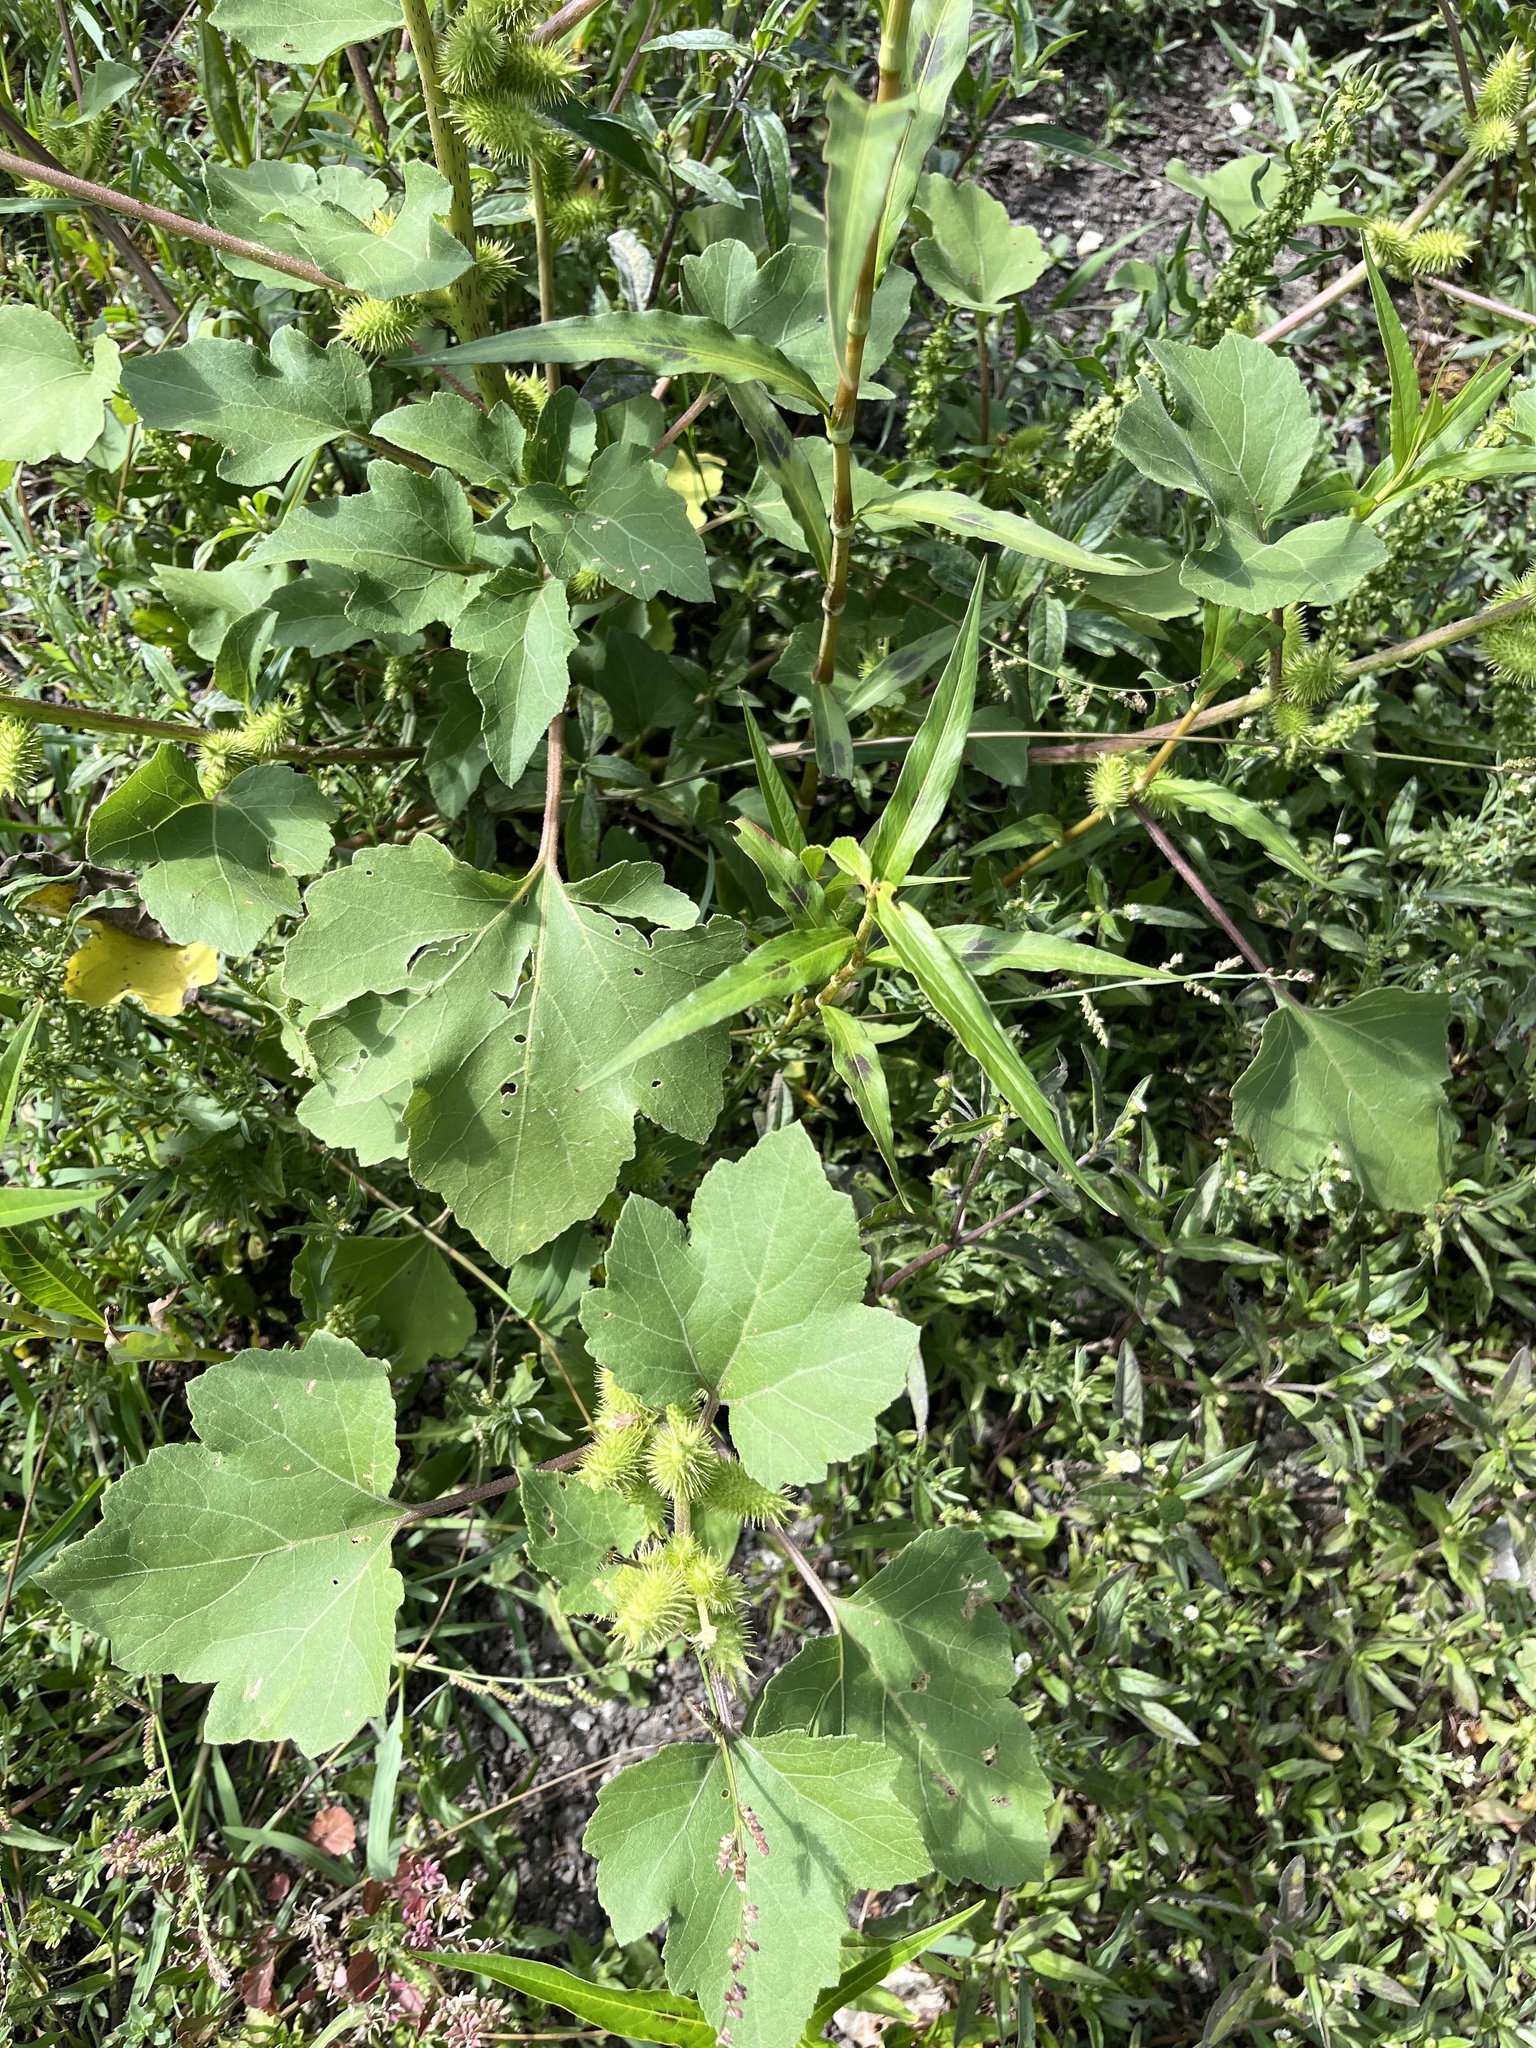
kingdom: Plantae
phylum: Tracheophyta
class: Magnoliopsida
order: Asterales
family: Asteraceae
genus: Xanthium
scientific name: Xanthium strumarium
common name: Rough cocklebur
